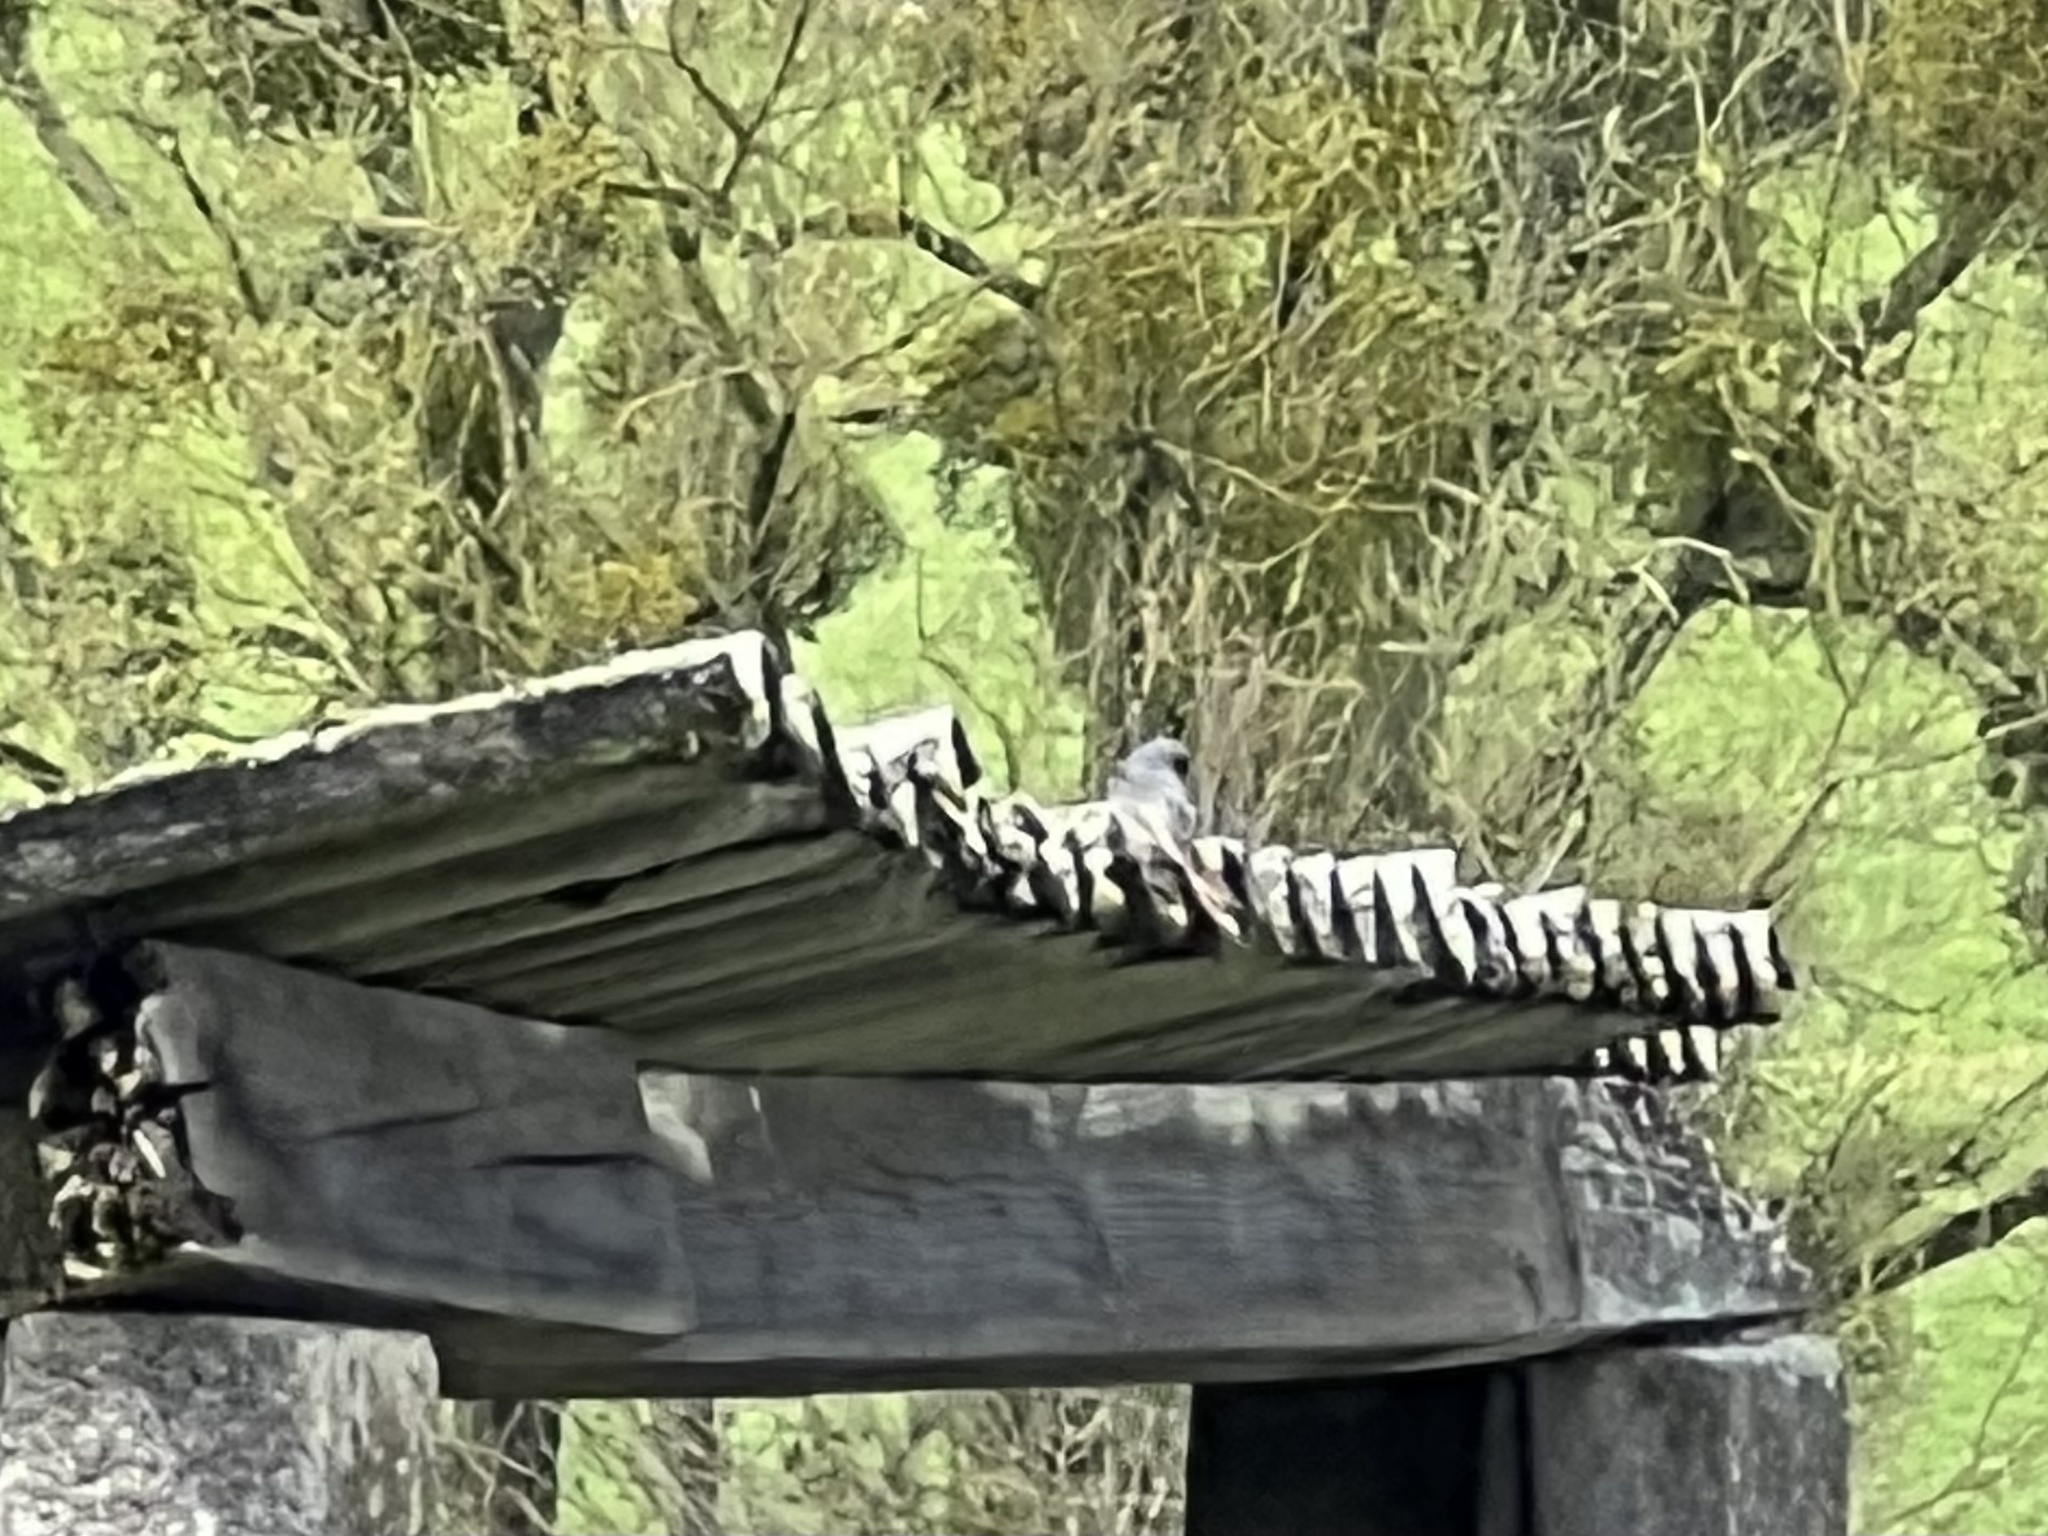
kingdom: Animalia
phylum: Chordata
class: Aves
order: Passeriformes
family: Muscicapidae
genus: Phoenicurus
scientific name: Phoenicurus ochruros
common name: Black redstart
